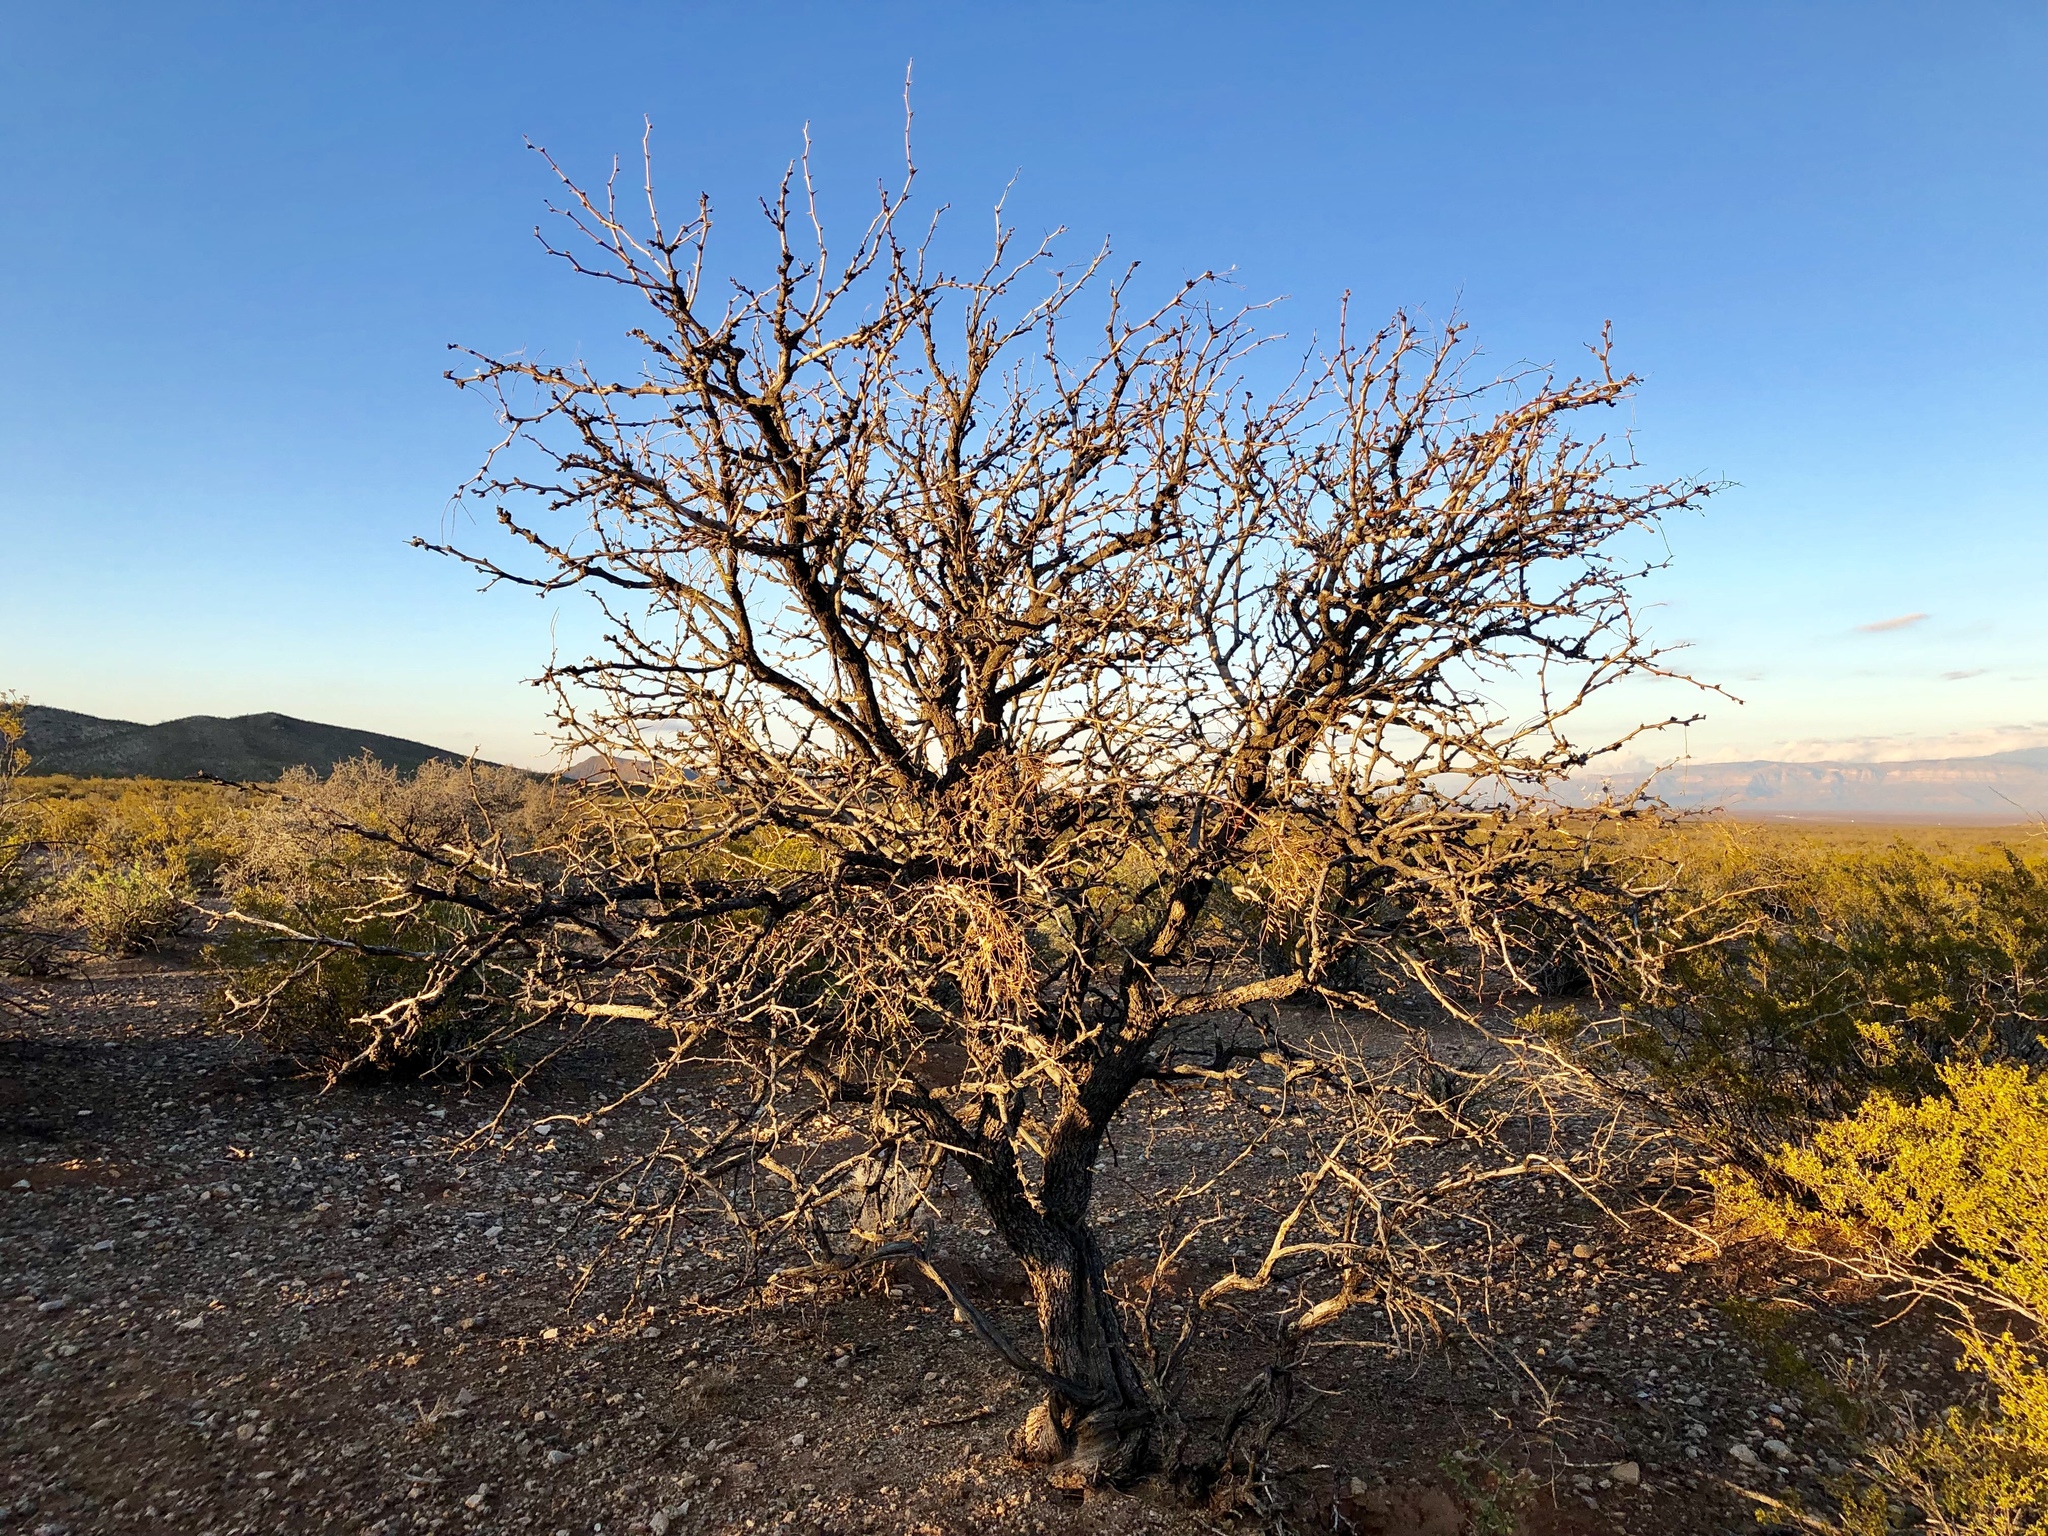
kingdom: Plantae
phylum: Tracheophyta
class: Magnoliopsida
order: Fabales
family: Fabaceae
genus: Prosopis
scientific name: Prosopis glandulosa
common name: Honey mesquite
